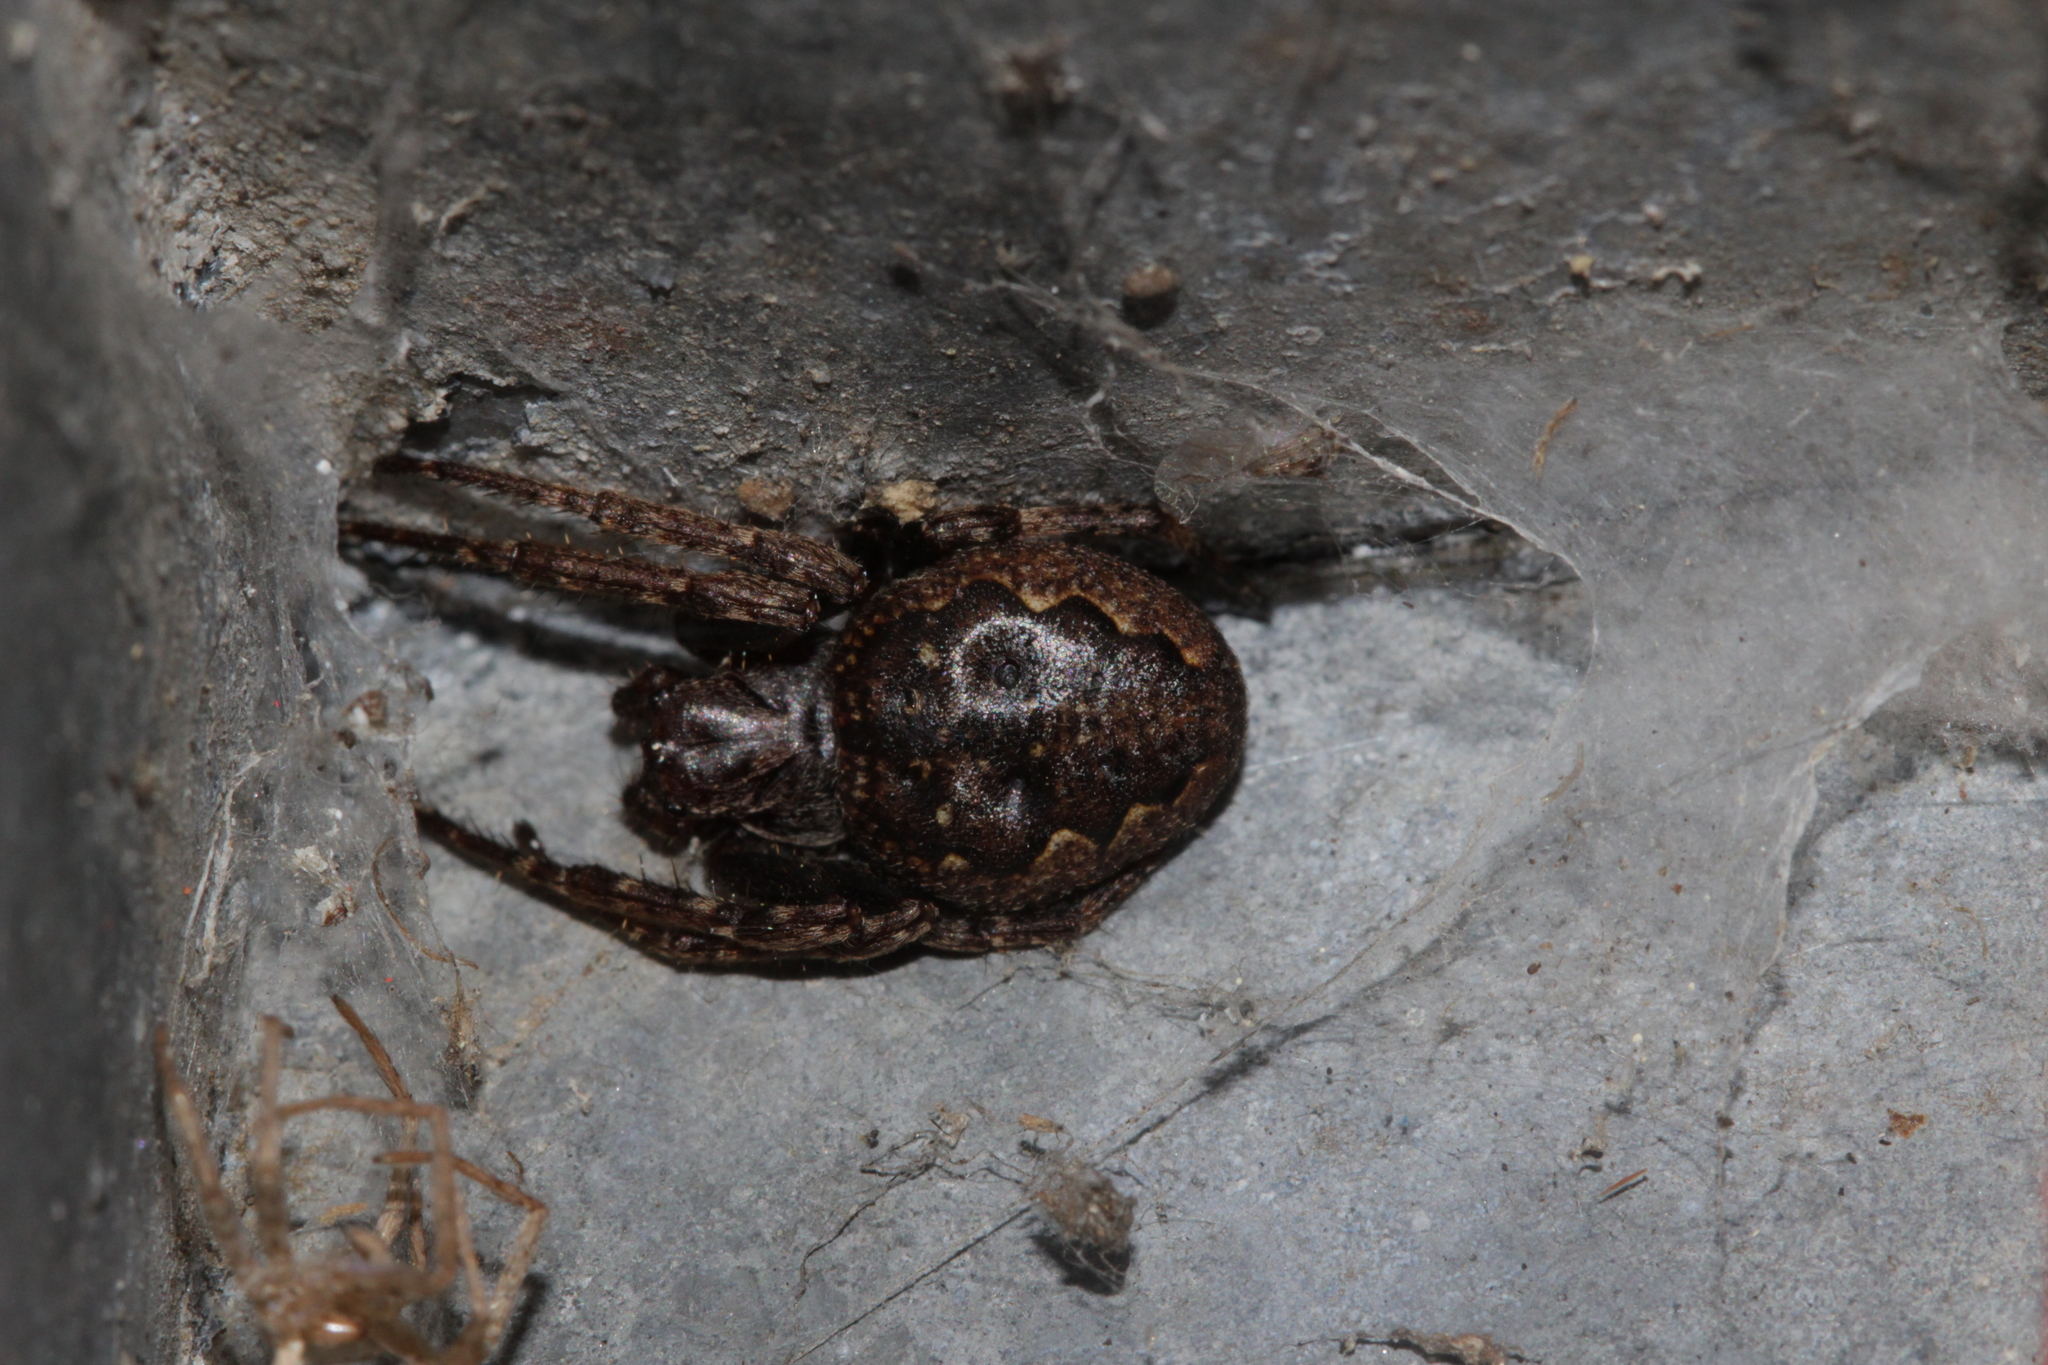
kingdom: Animalia
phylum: Arthropoda
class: Arachnida
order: Araneae
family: Araneidae
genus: Nuctenea
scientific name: Nuctenea umbratica
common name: Toad spider
